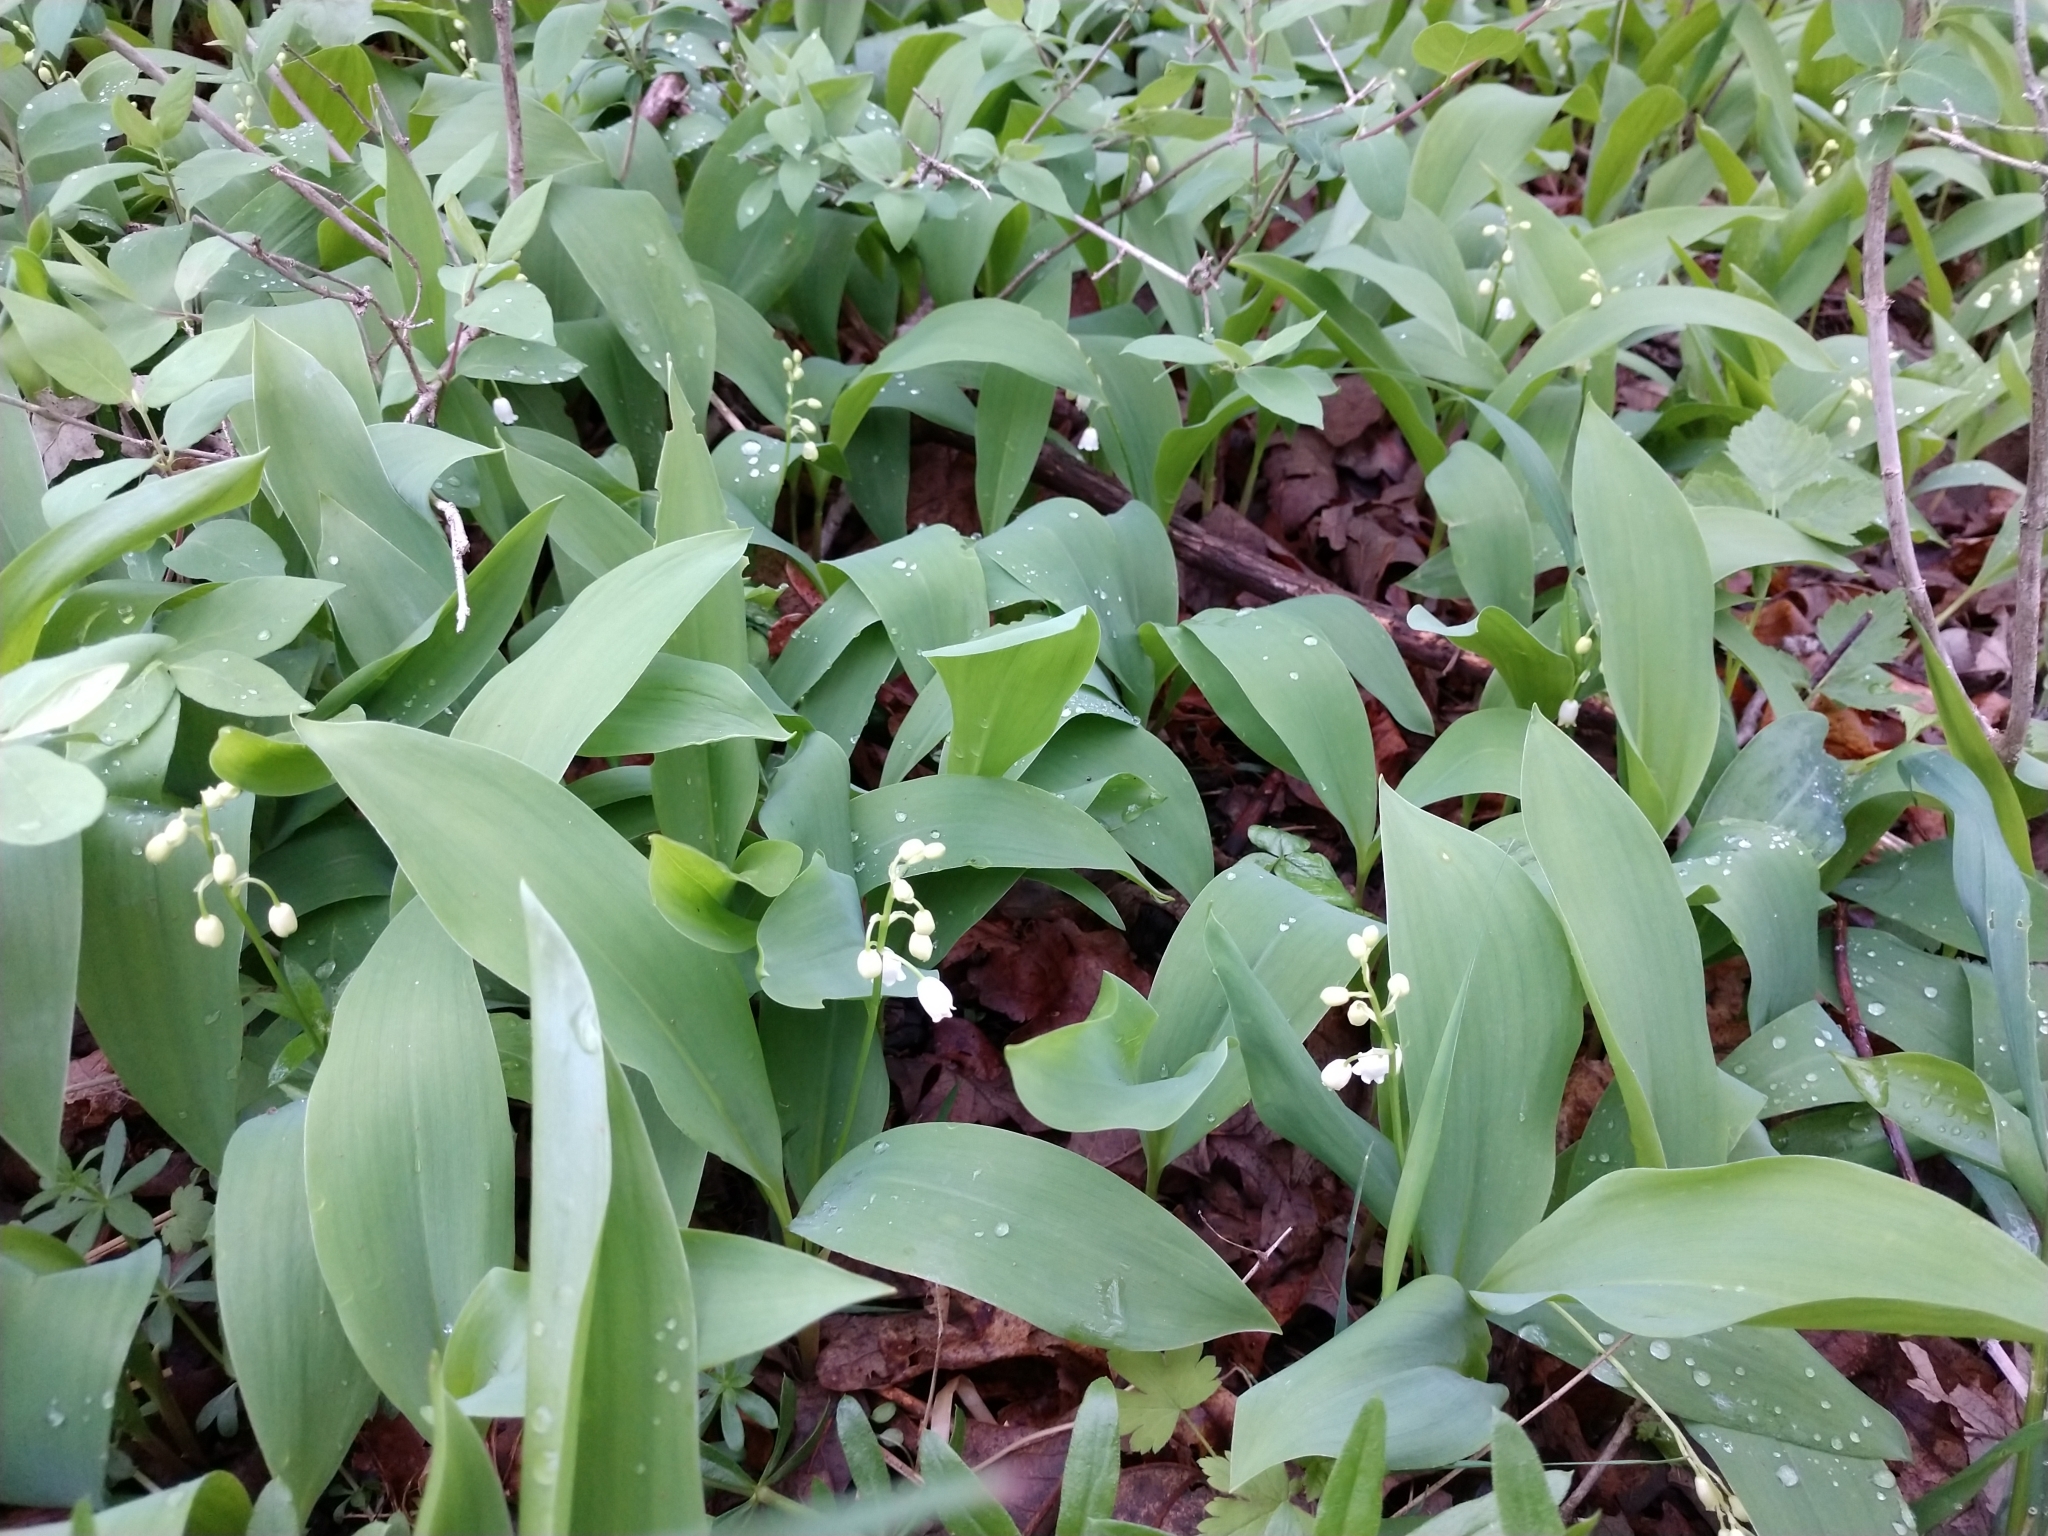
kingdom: Plantae
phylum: Tracheophyta
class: Liliopsida
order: Asparagales
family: Asparagaceae
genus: Convallaria
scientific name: Convallaria majalis
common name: Lily-of-the-valley
